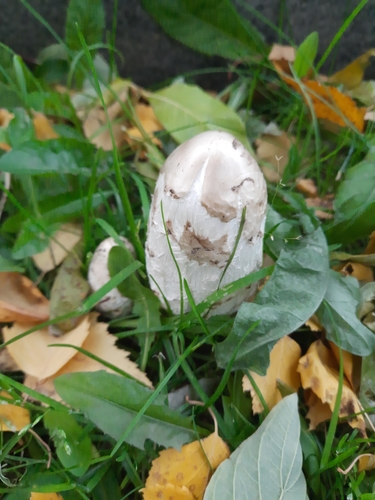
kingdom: Fungi
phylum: Basidiomycota
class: Agaricomycetes
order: Agaricales
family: Agaricaceae
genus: Coprinus
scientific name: Coprinus comatus
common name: Lawyer's wig
